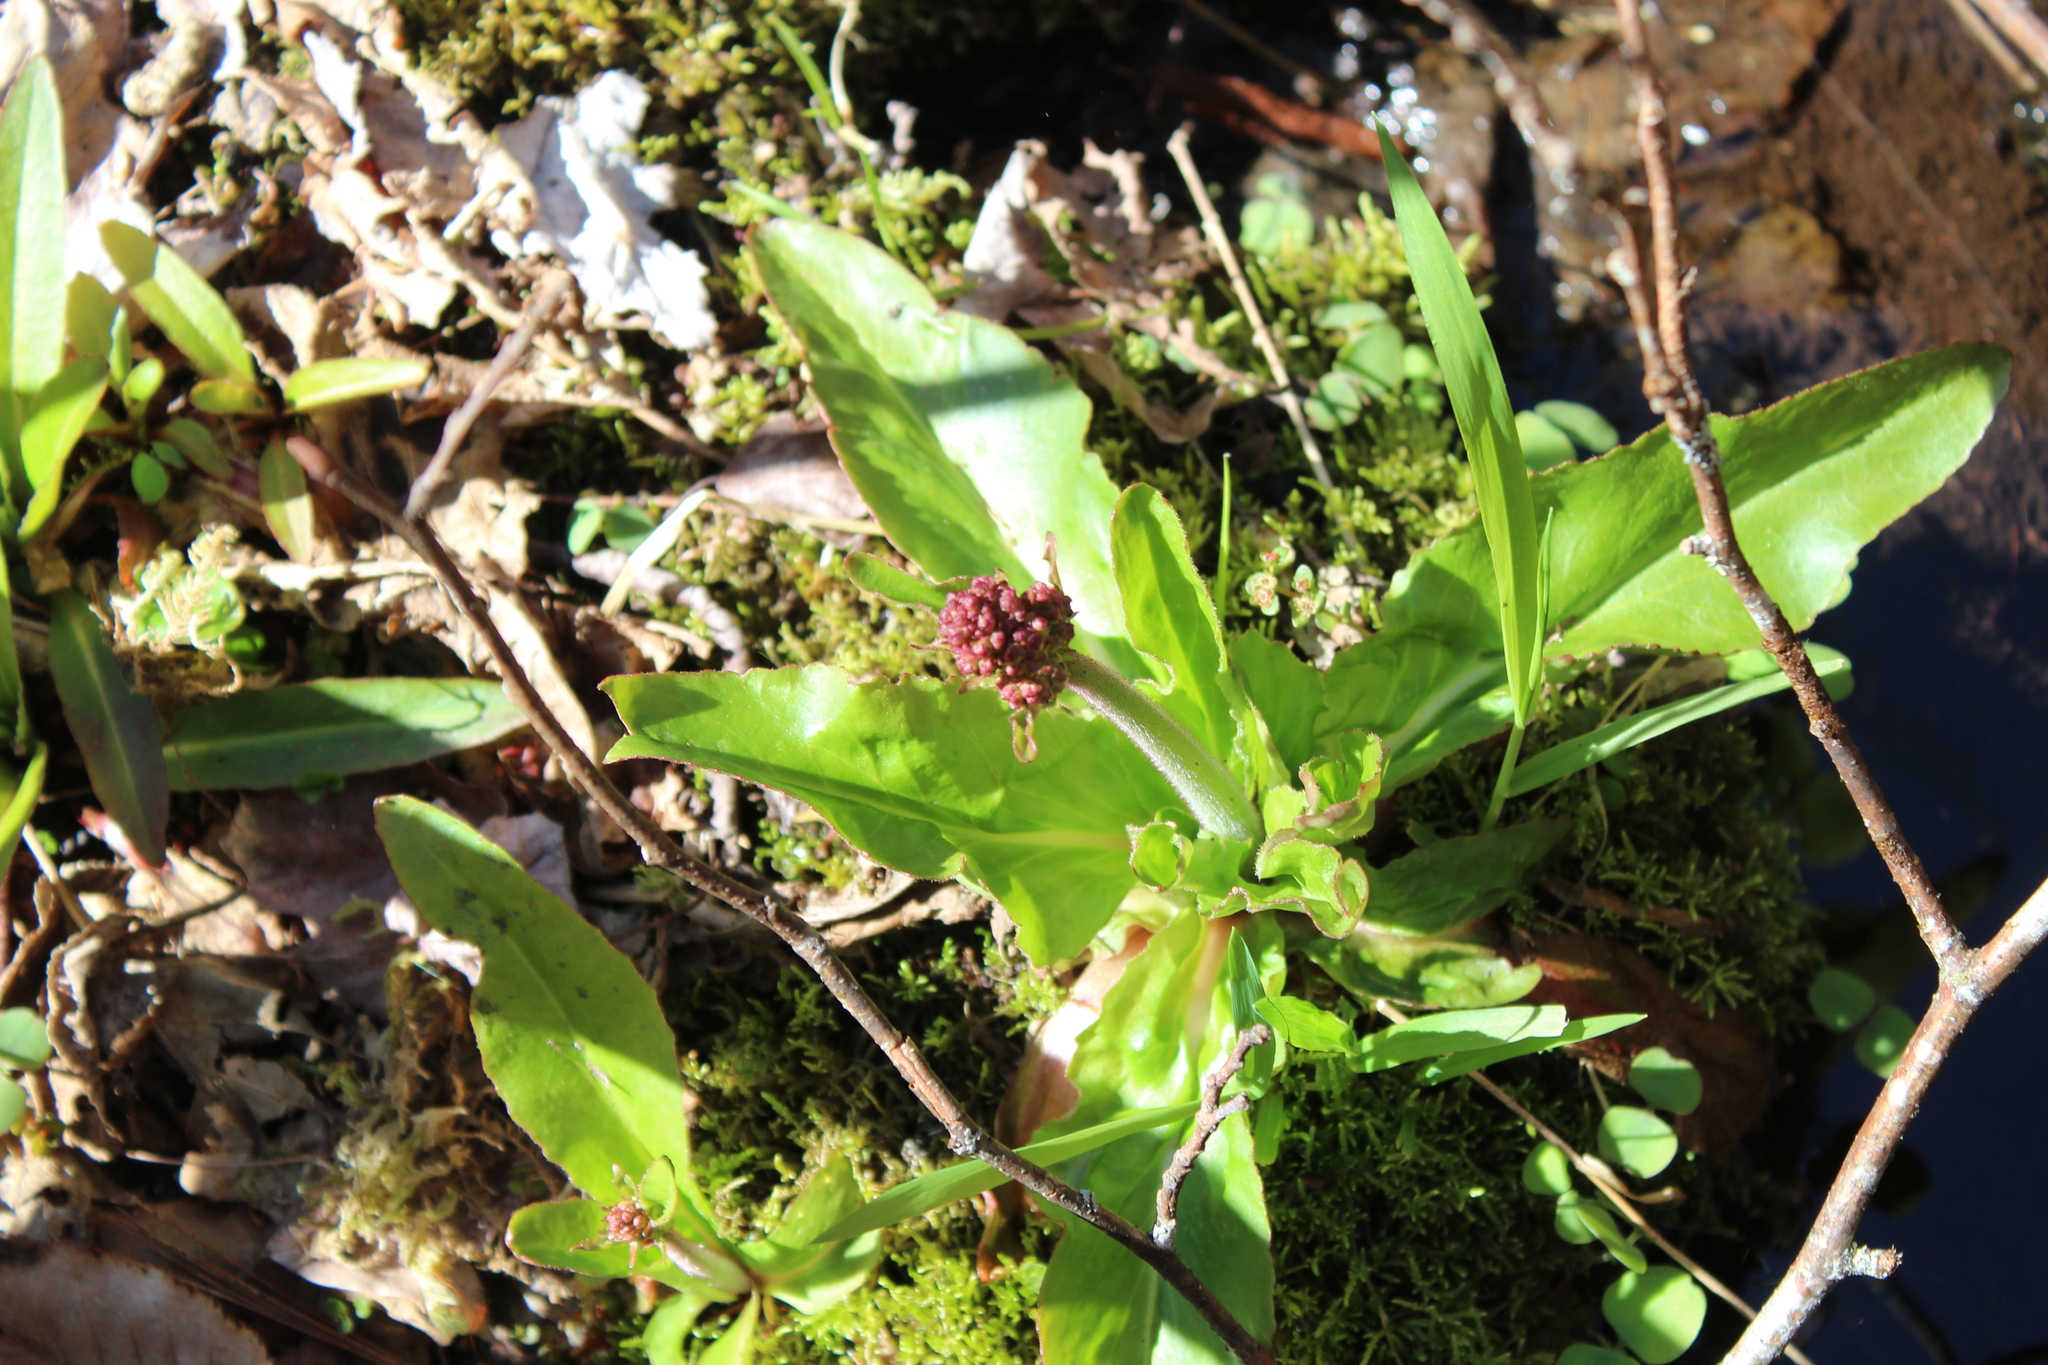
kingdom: Plantae
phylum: Tracheophyta
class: Magnoliopsida
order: Saxifragales
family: Saxifragaceae
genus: Micranthes
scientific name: Micranthes pensylvanica
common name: Marsh saxifrage
